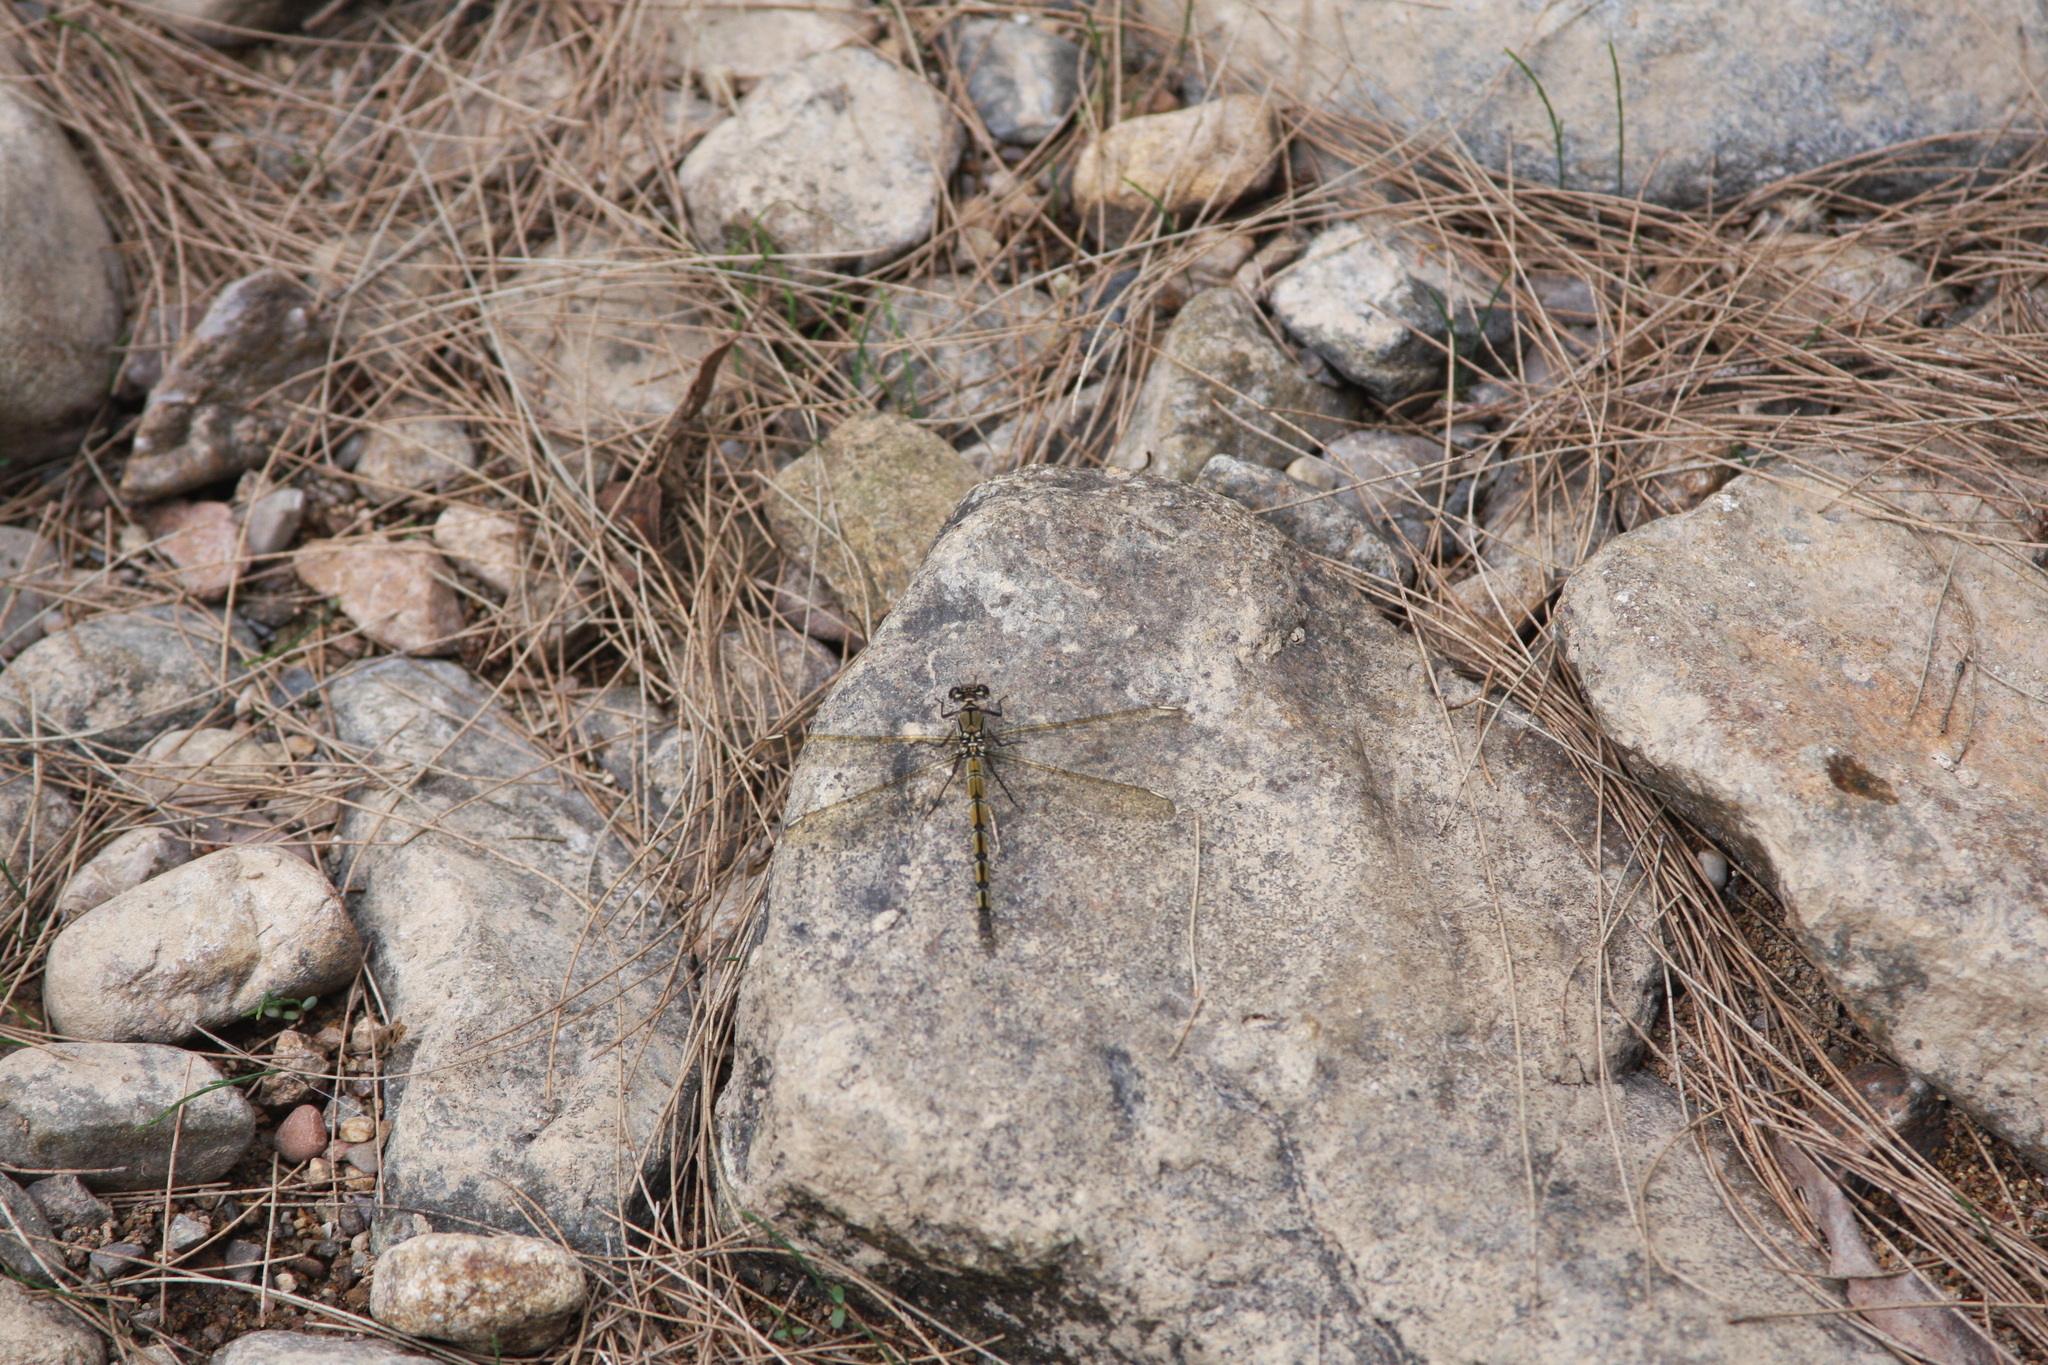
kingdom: Animalia
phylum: Arthropoda
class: Insecta
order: Odonata
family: Lestoideidae
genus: Diphlebia
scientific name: Diphlebia nymphoides
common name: Arrowhead rockmaster
